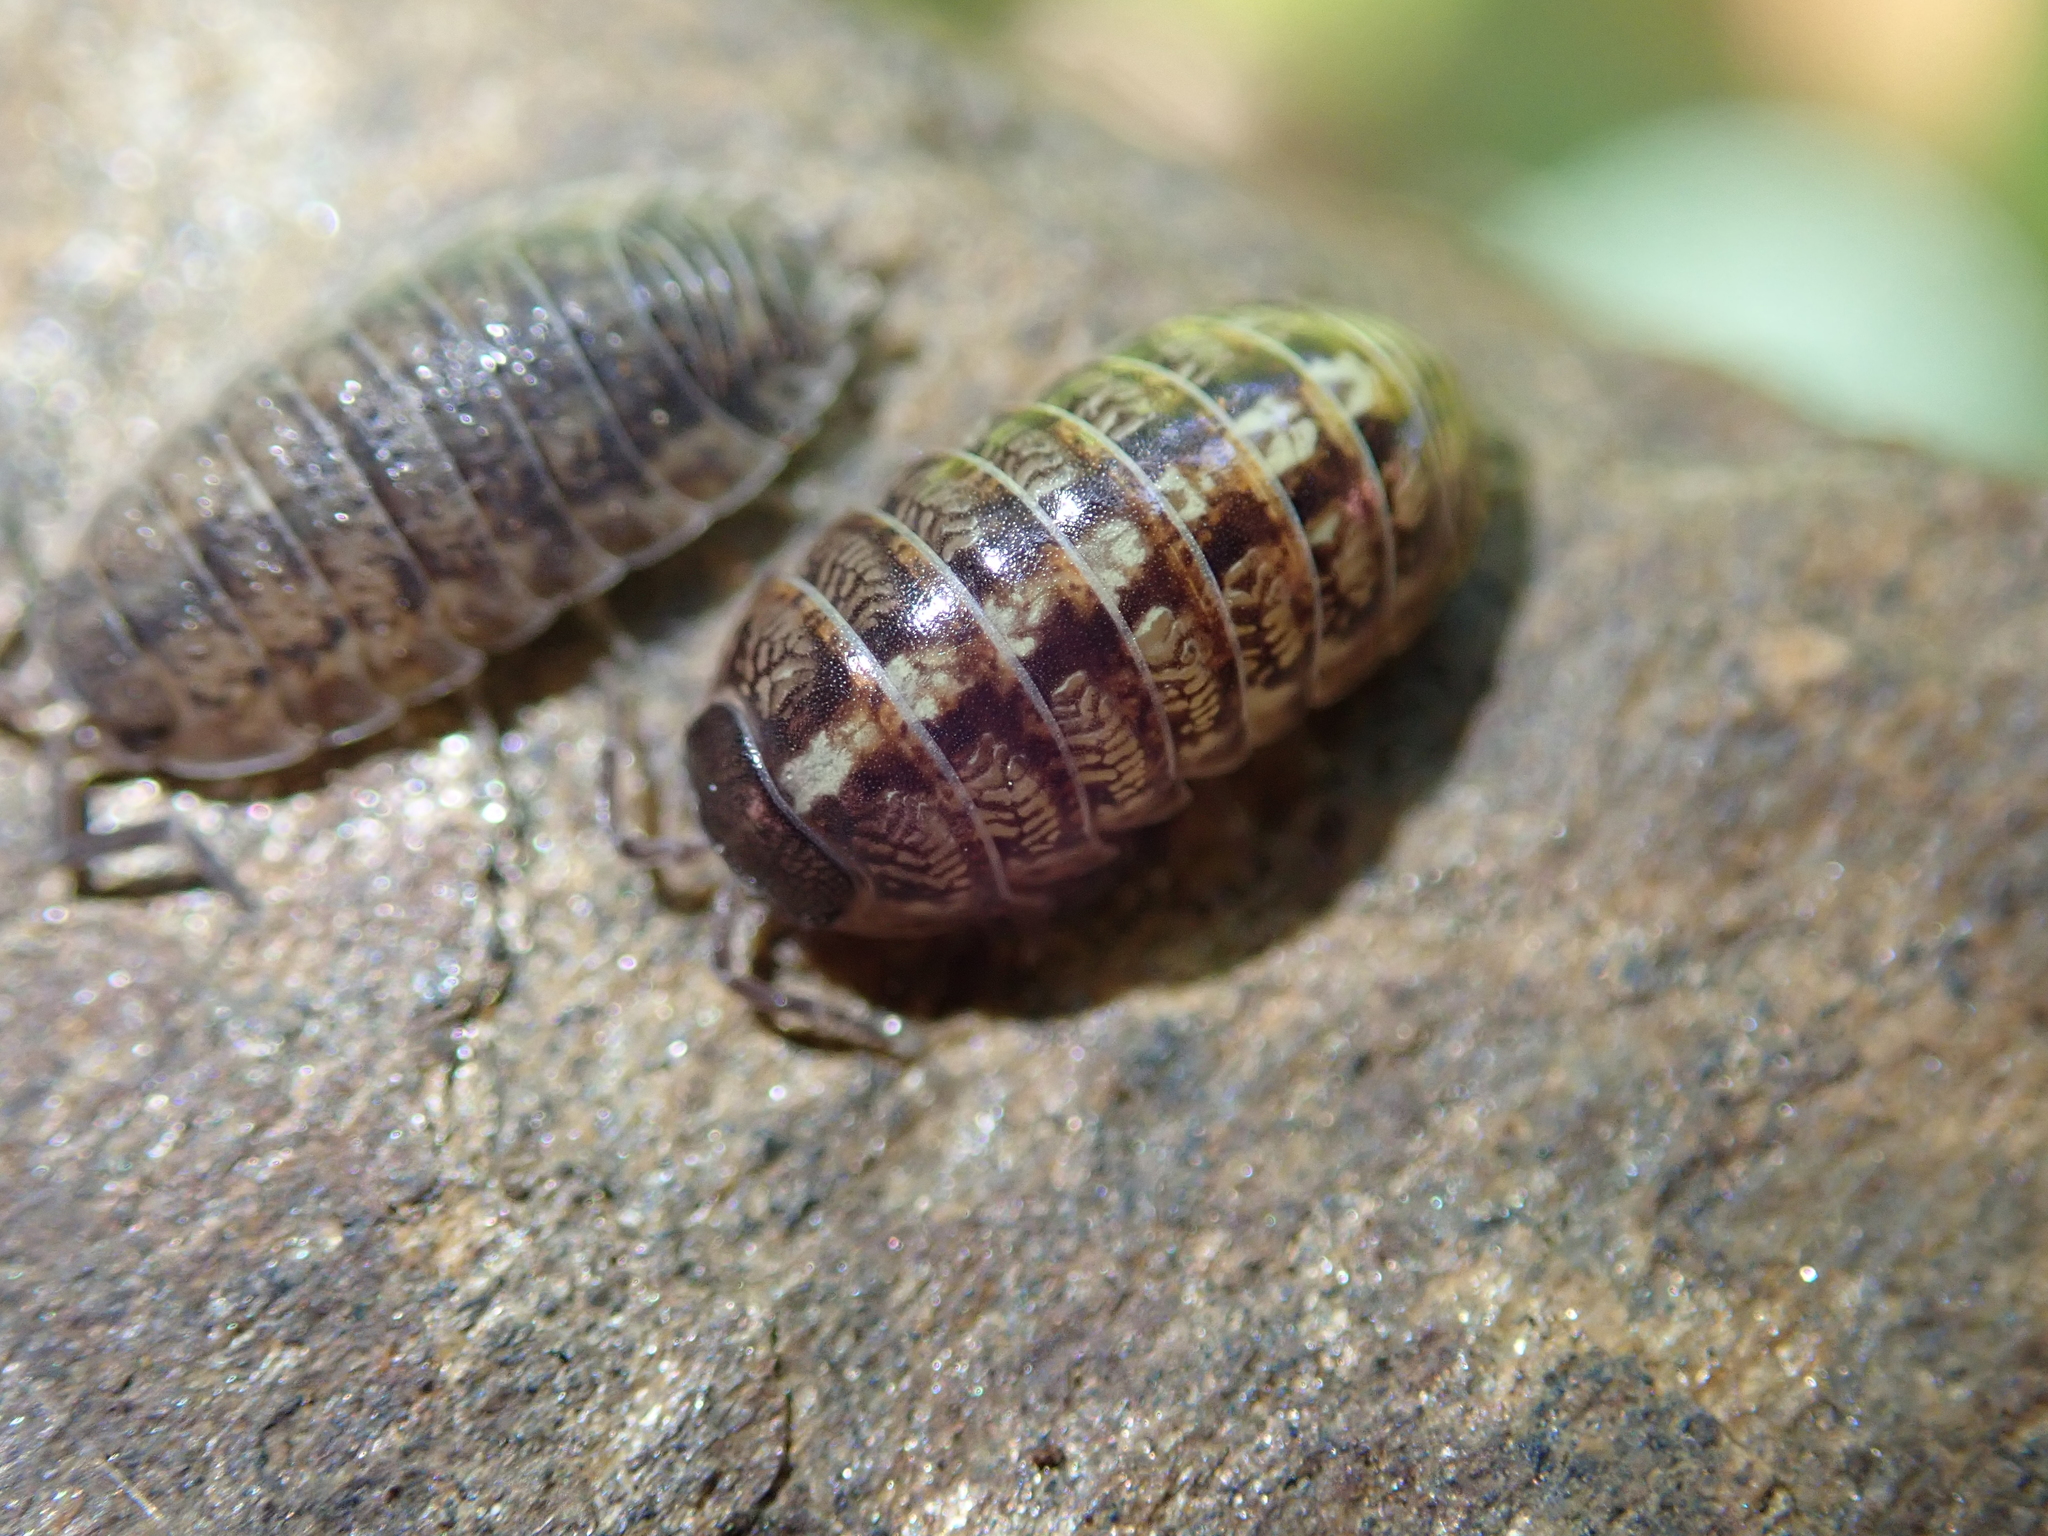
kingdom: Animalia
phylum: Arthropoda
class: Malacostraca
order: Isopoda
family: Armadillidiidae
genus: Armadillidium
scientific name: Armadillidium vulgare
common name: Common pill woodlouse
